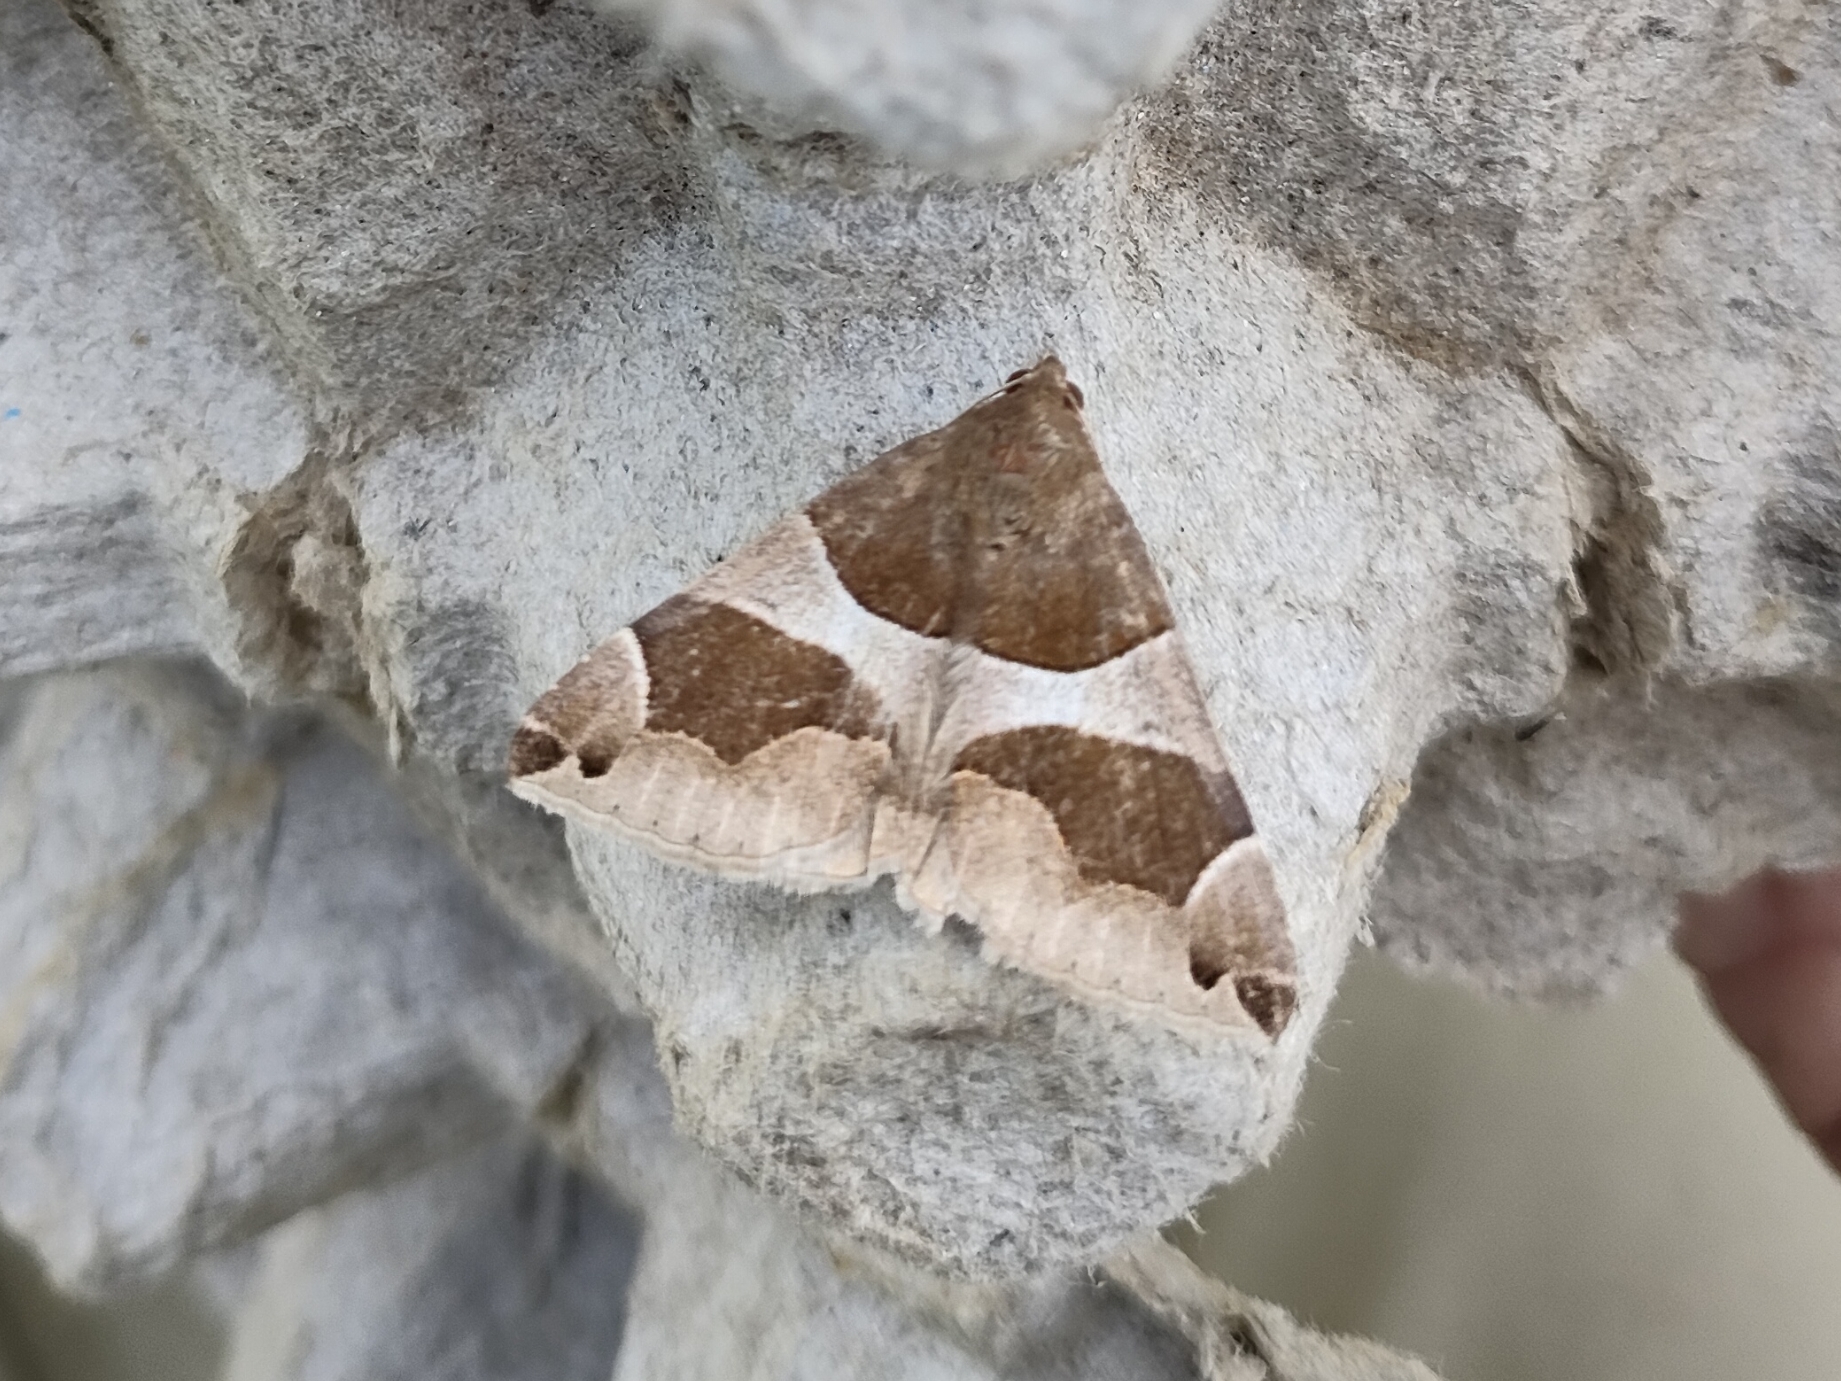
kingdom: Animalia
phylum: Arthropoda
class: Insecta
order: Lepidoptera
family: Erebidae
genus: Dysgonia
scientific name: Dysgonia algira
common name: Passenger
